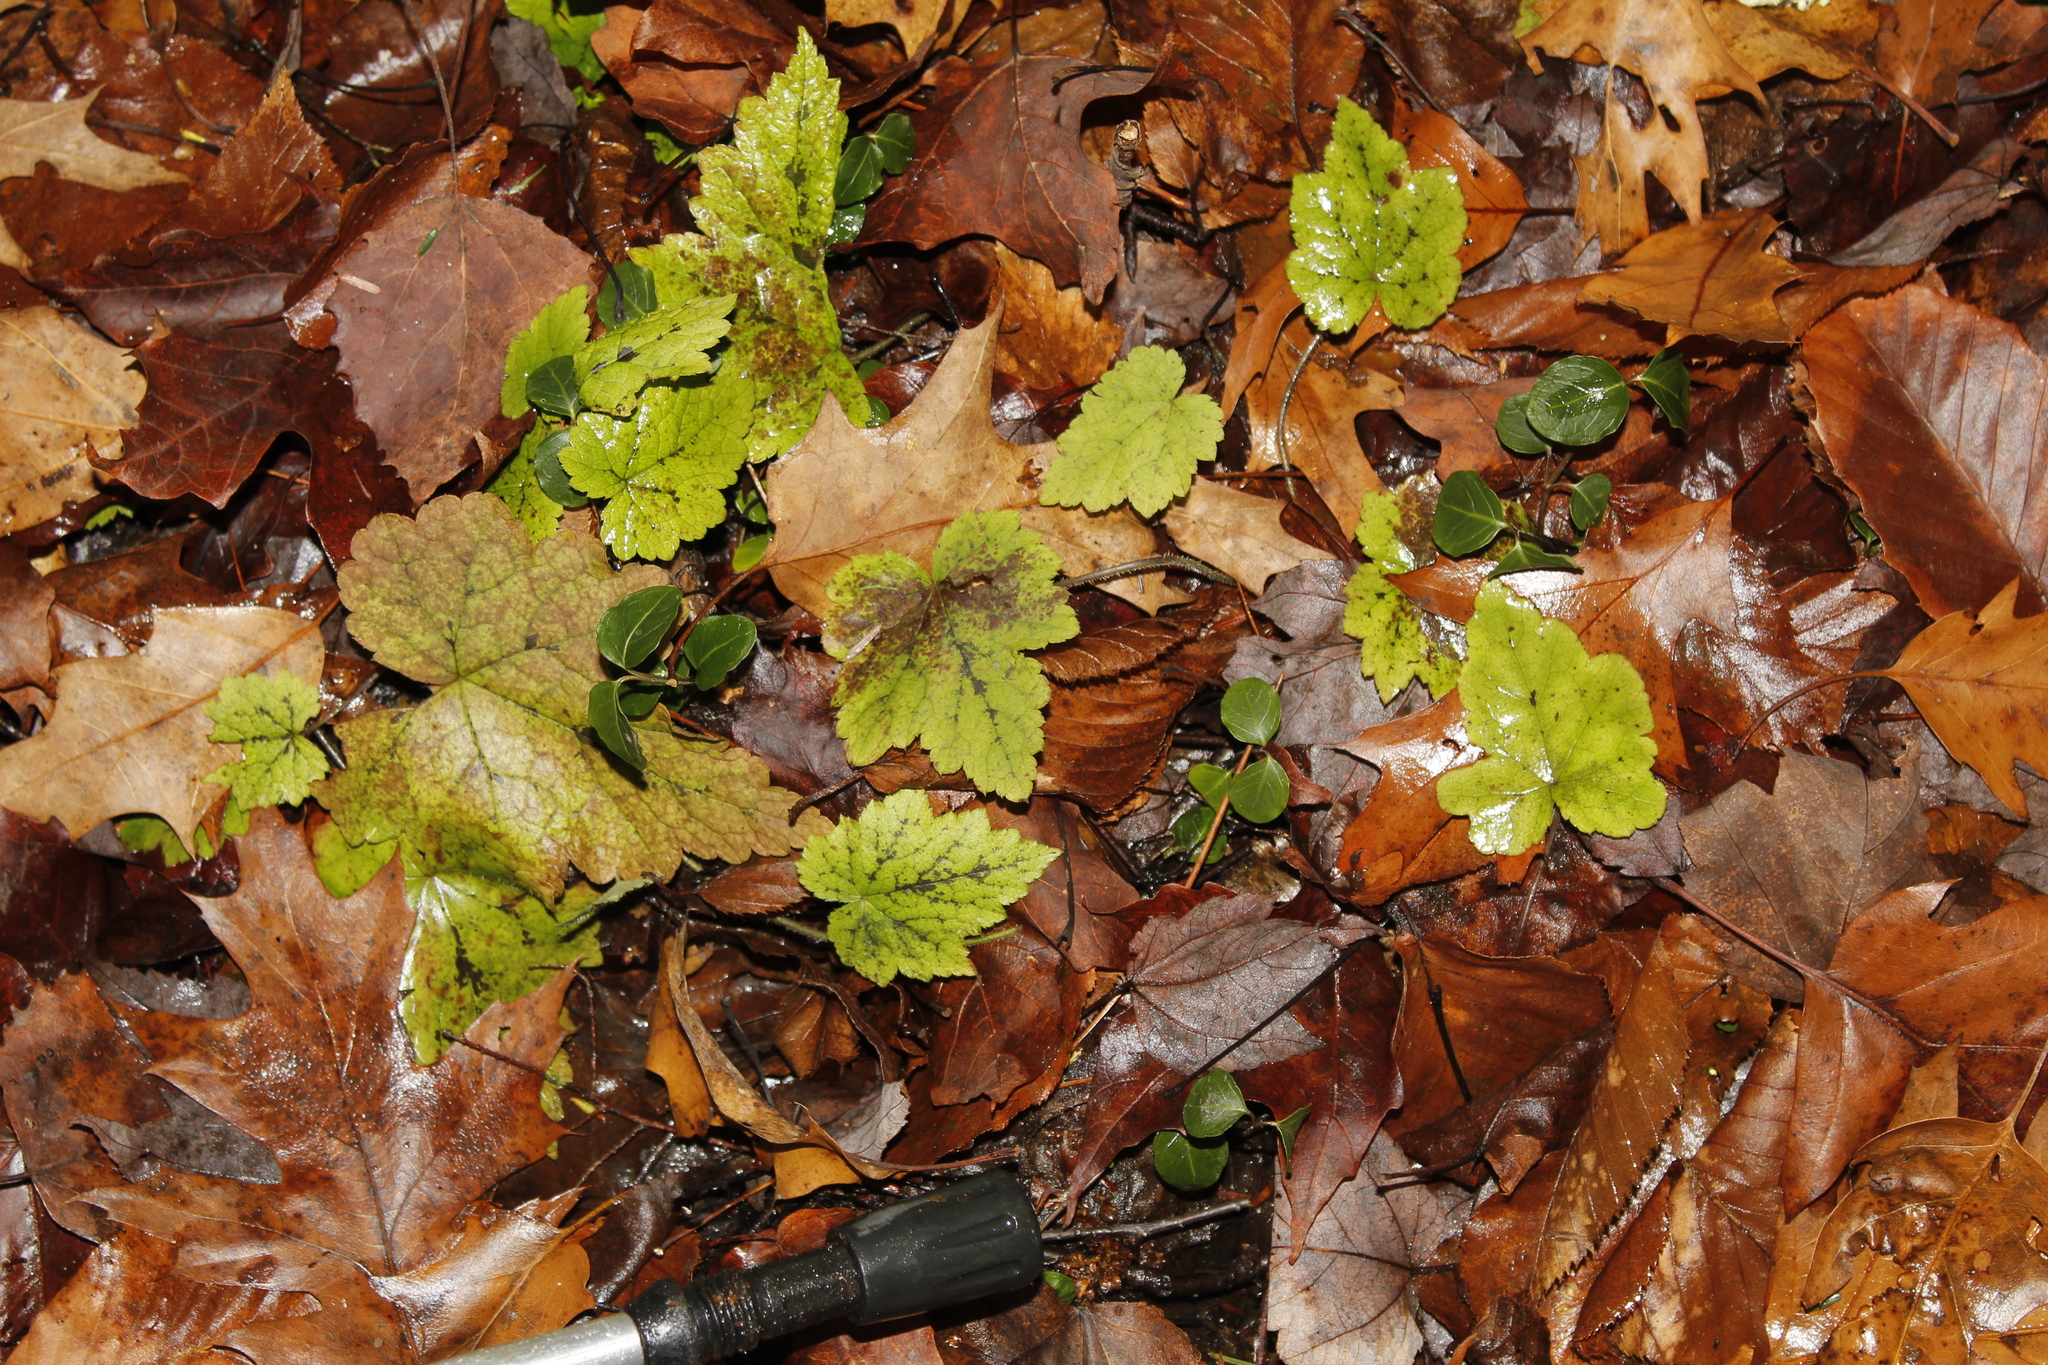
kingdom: Plantae
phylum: Tracheophyta
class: Magnoliopsida
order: Gentianales
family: Rubiaceae
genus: Mitchella
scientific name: Mitchella repens
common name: Partridge-berry
